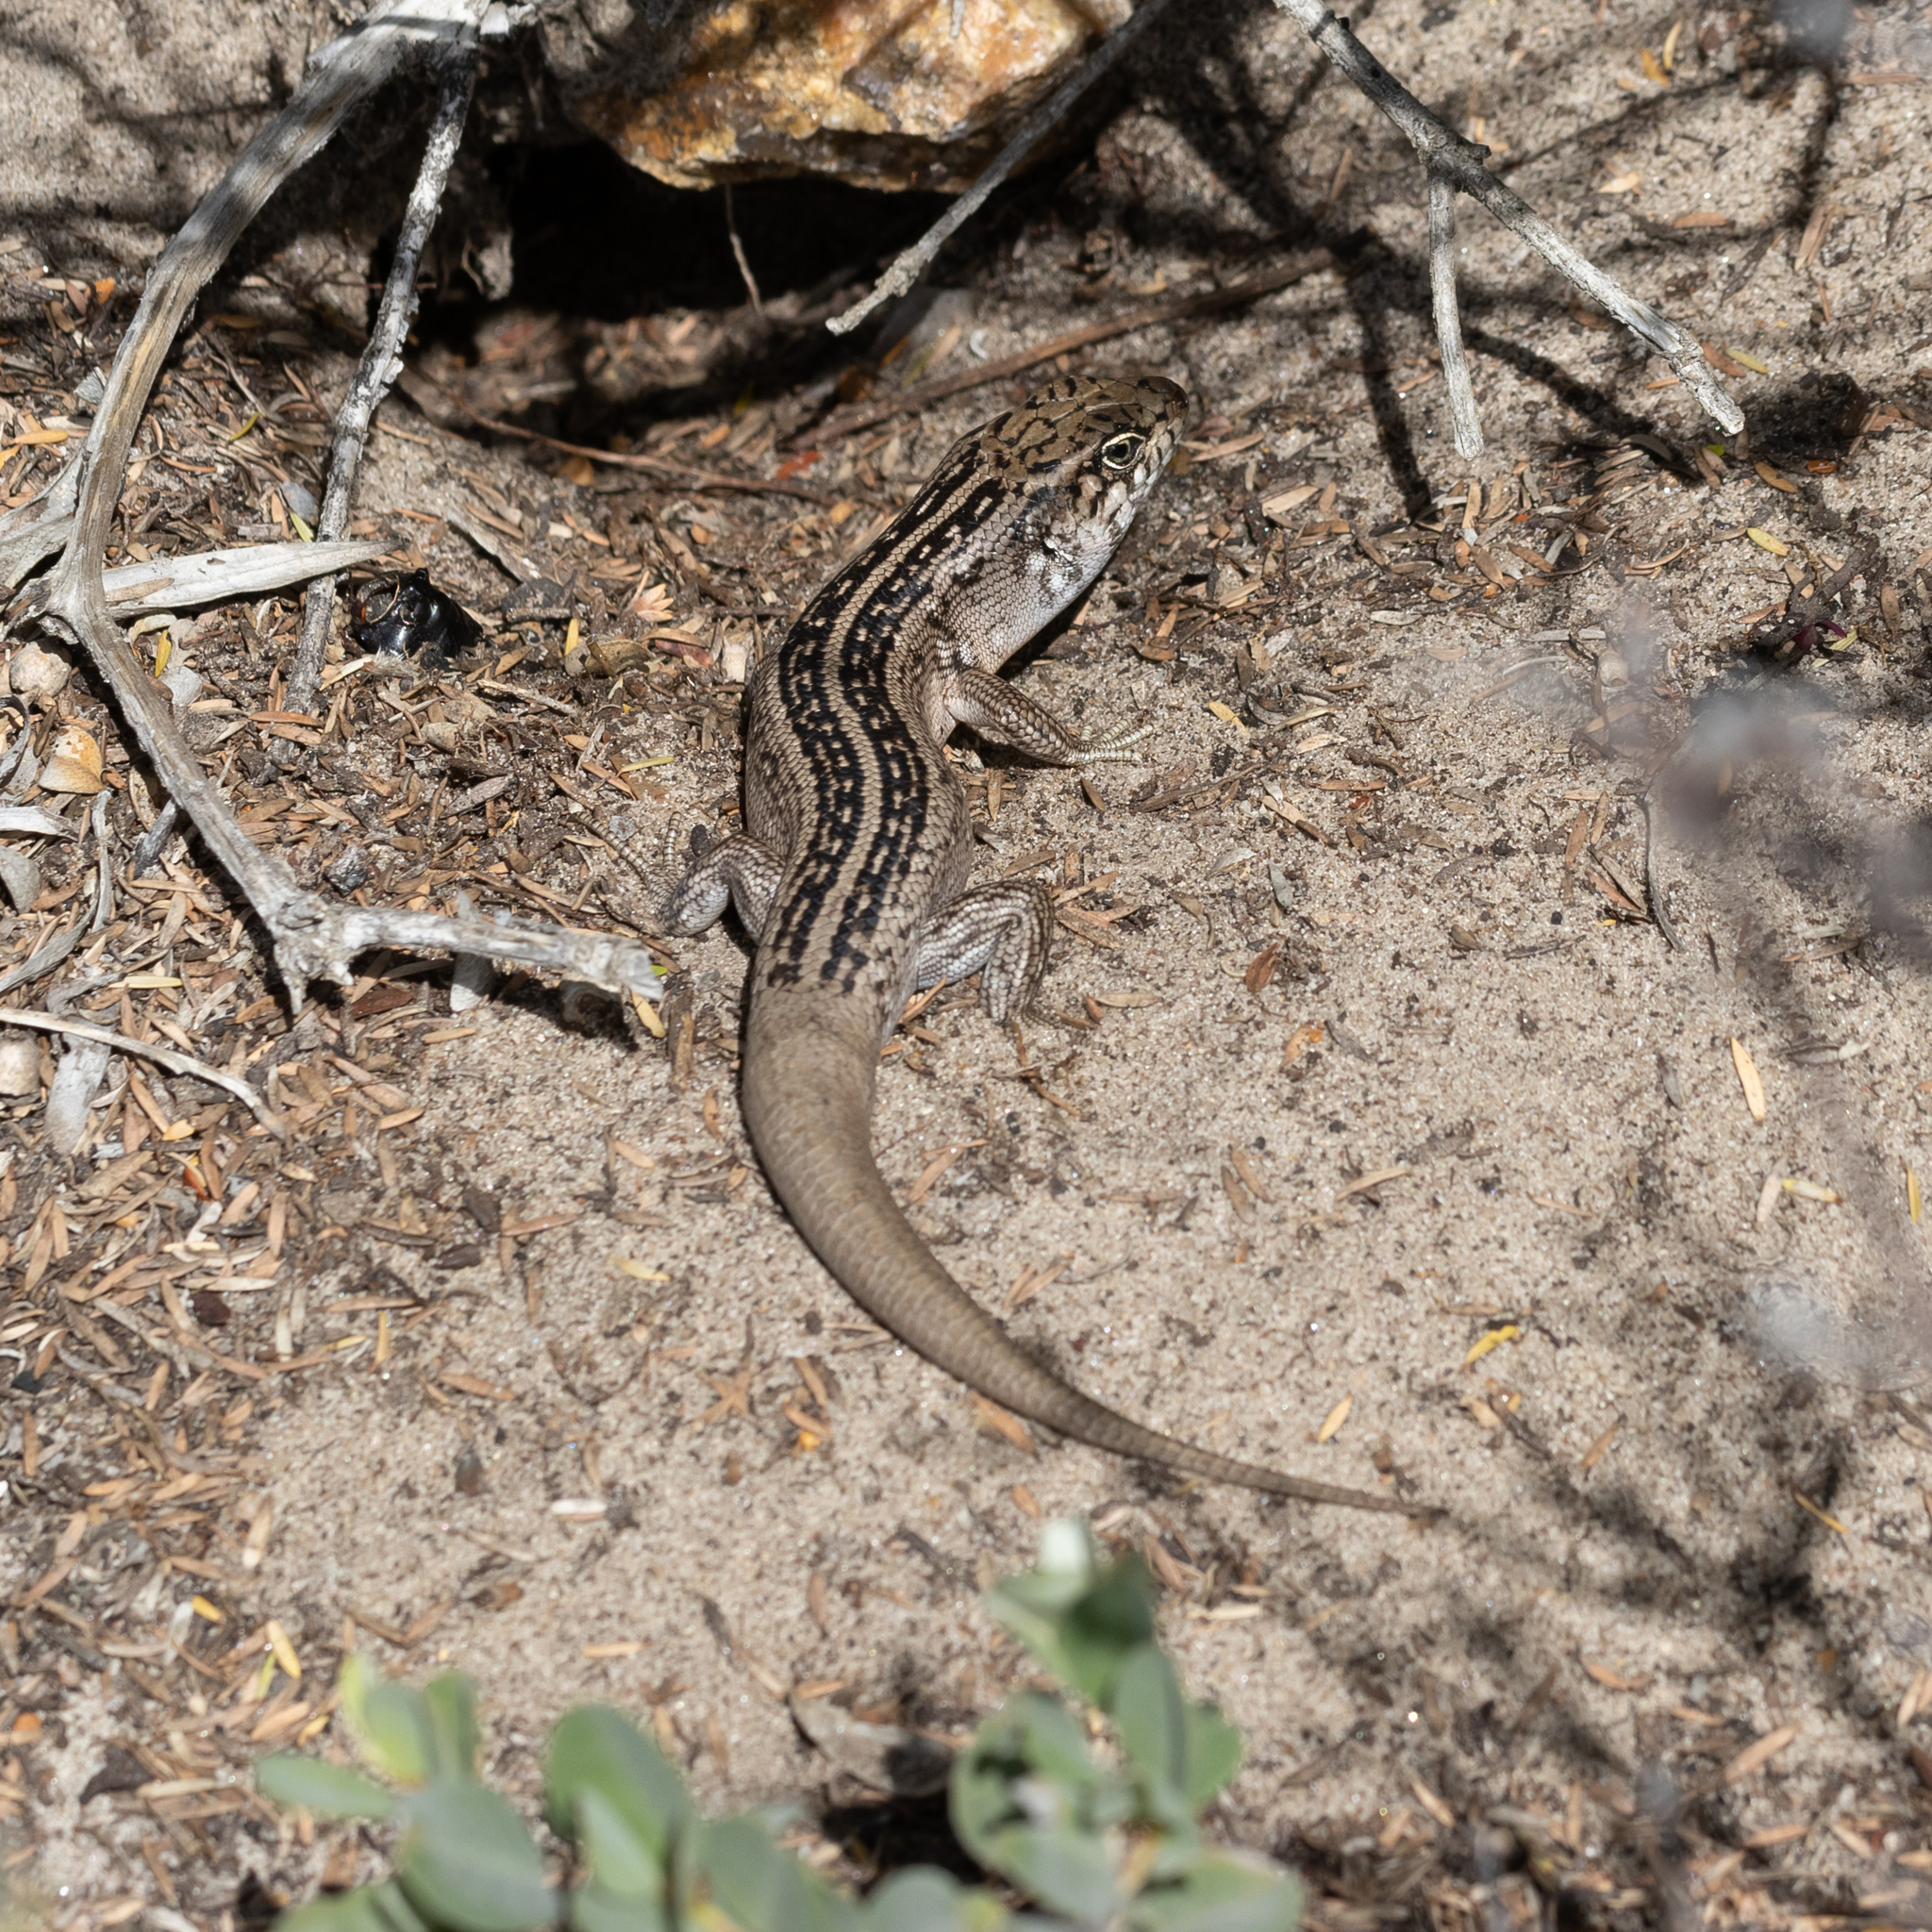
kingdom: Animalia
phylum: Chordata
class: Squamata
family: Scincidae
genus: Liopholis
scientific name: Liopholis multiscutata
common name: Bull skink
